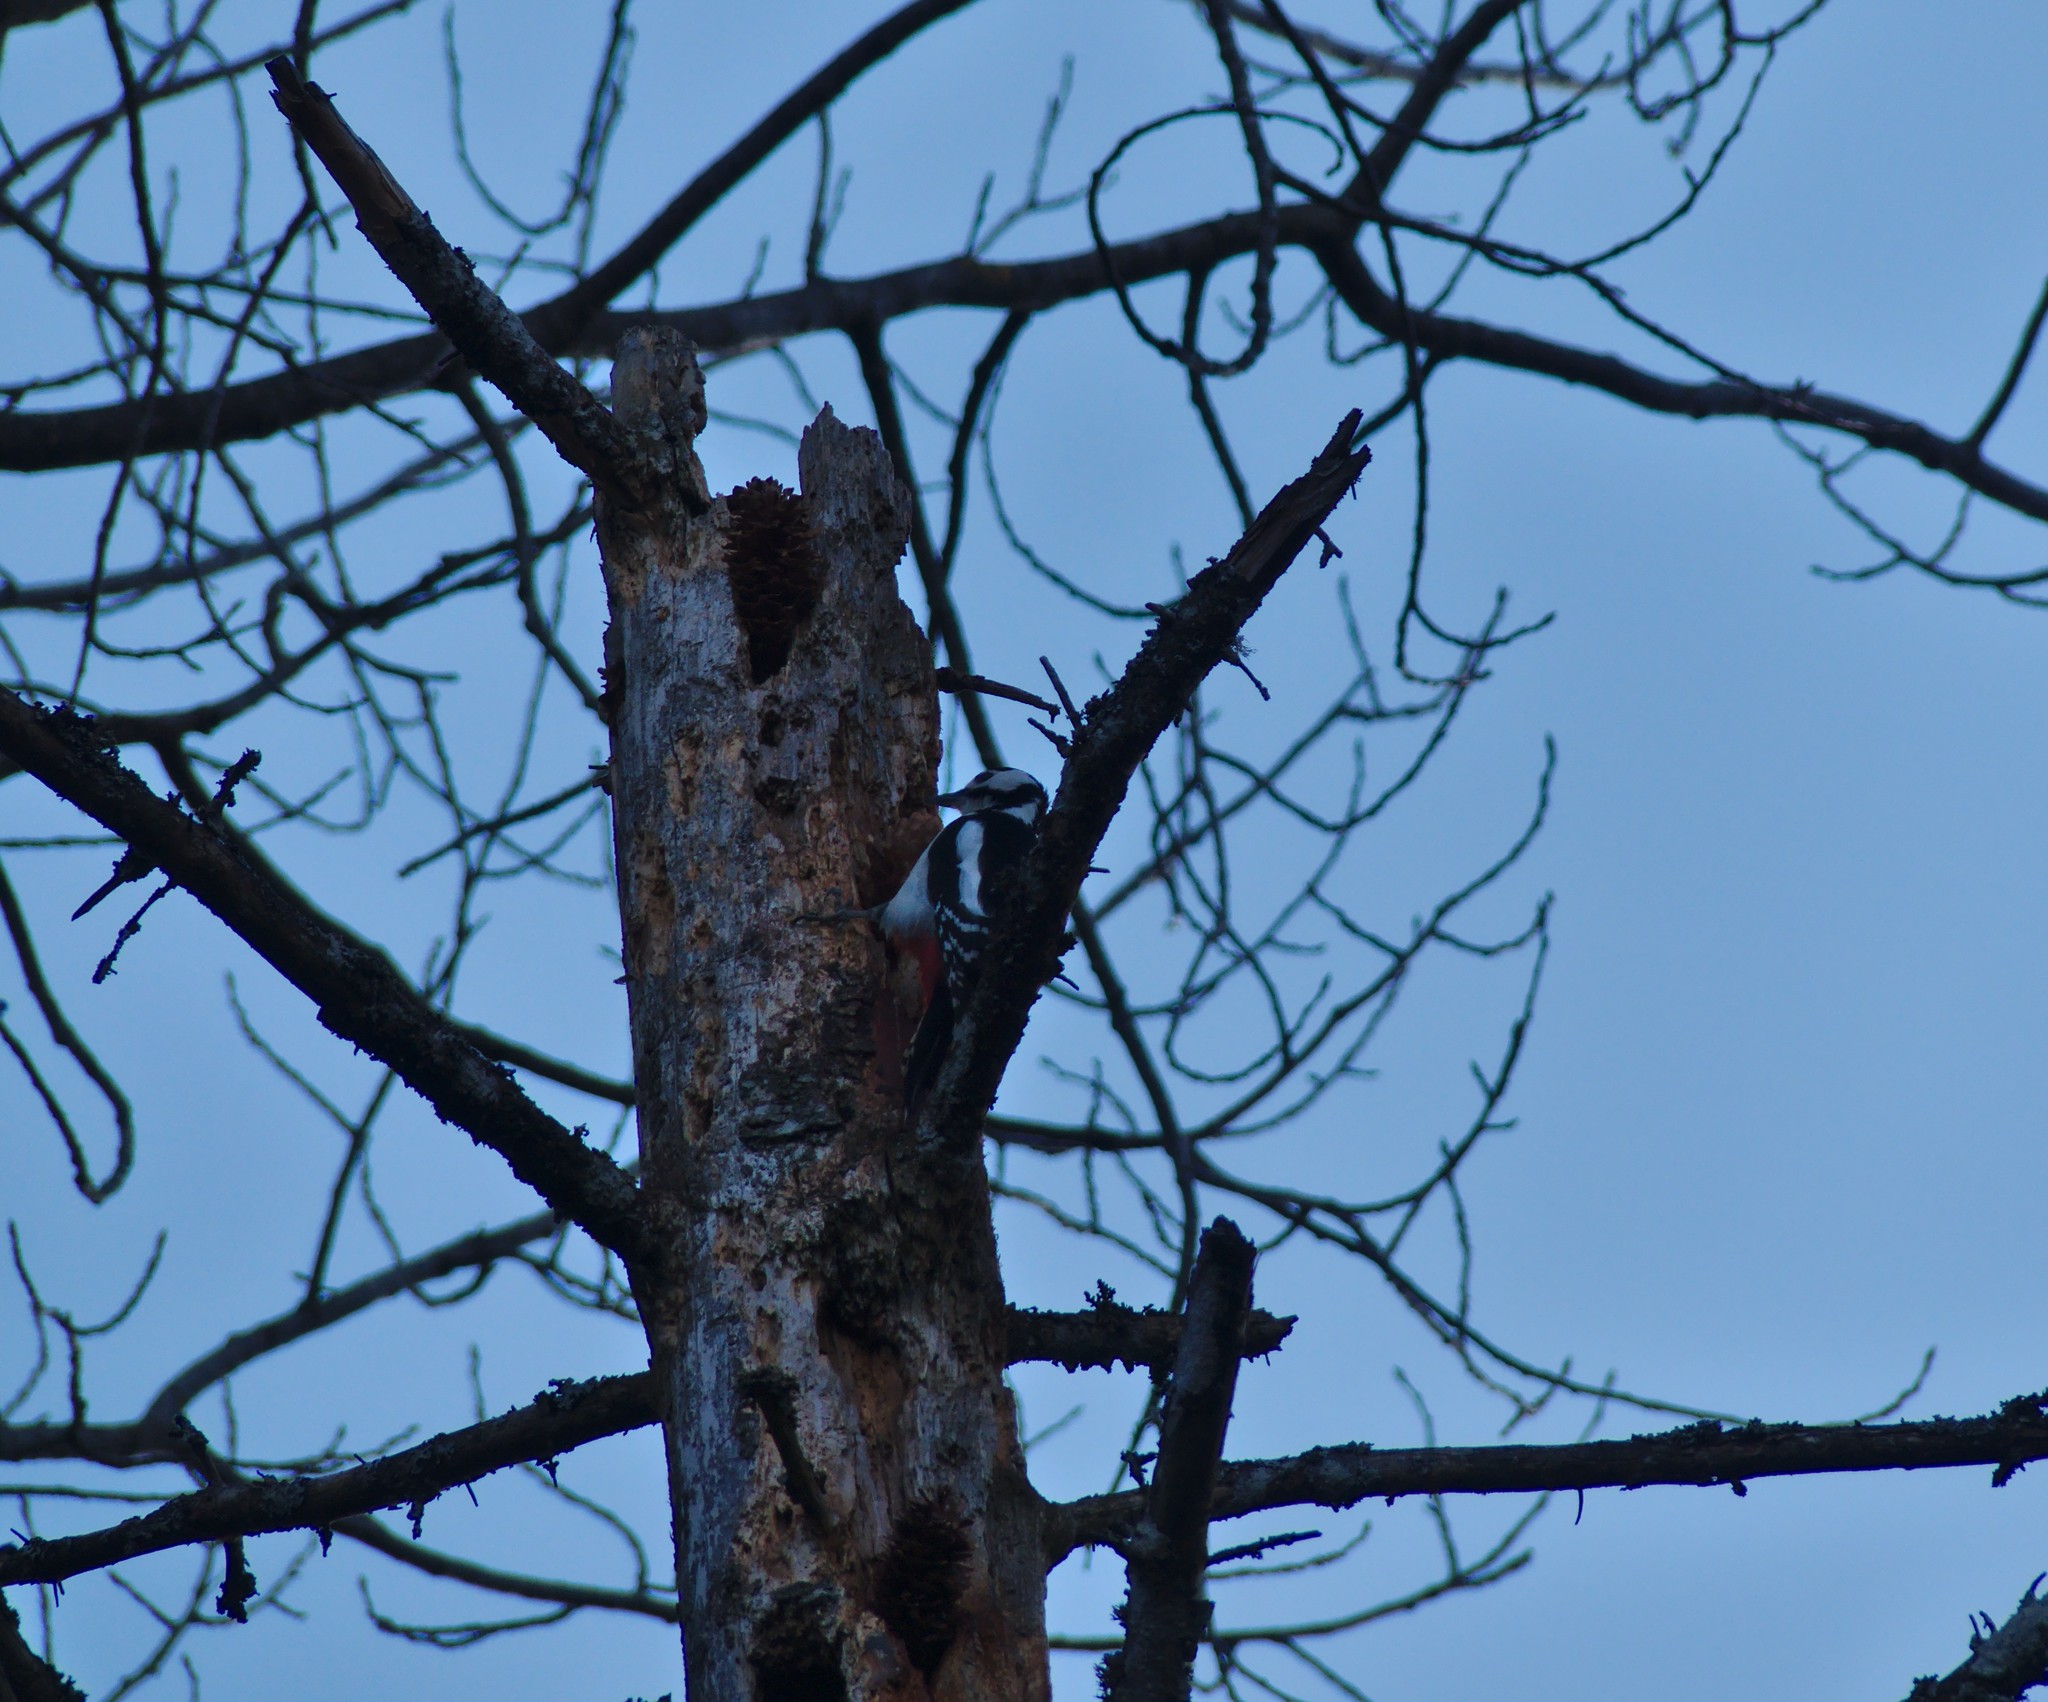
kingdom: Animalia
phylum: Chordata
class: Aves
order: Piciformes
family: Picidae
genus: Dendrocopos
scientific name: Dendrocopos major
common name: Great spotted woodpecker
